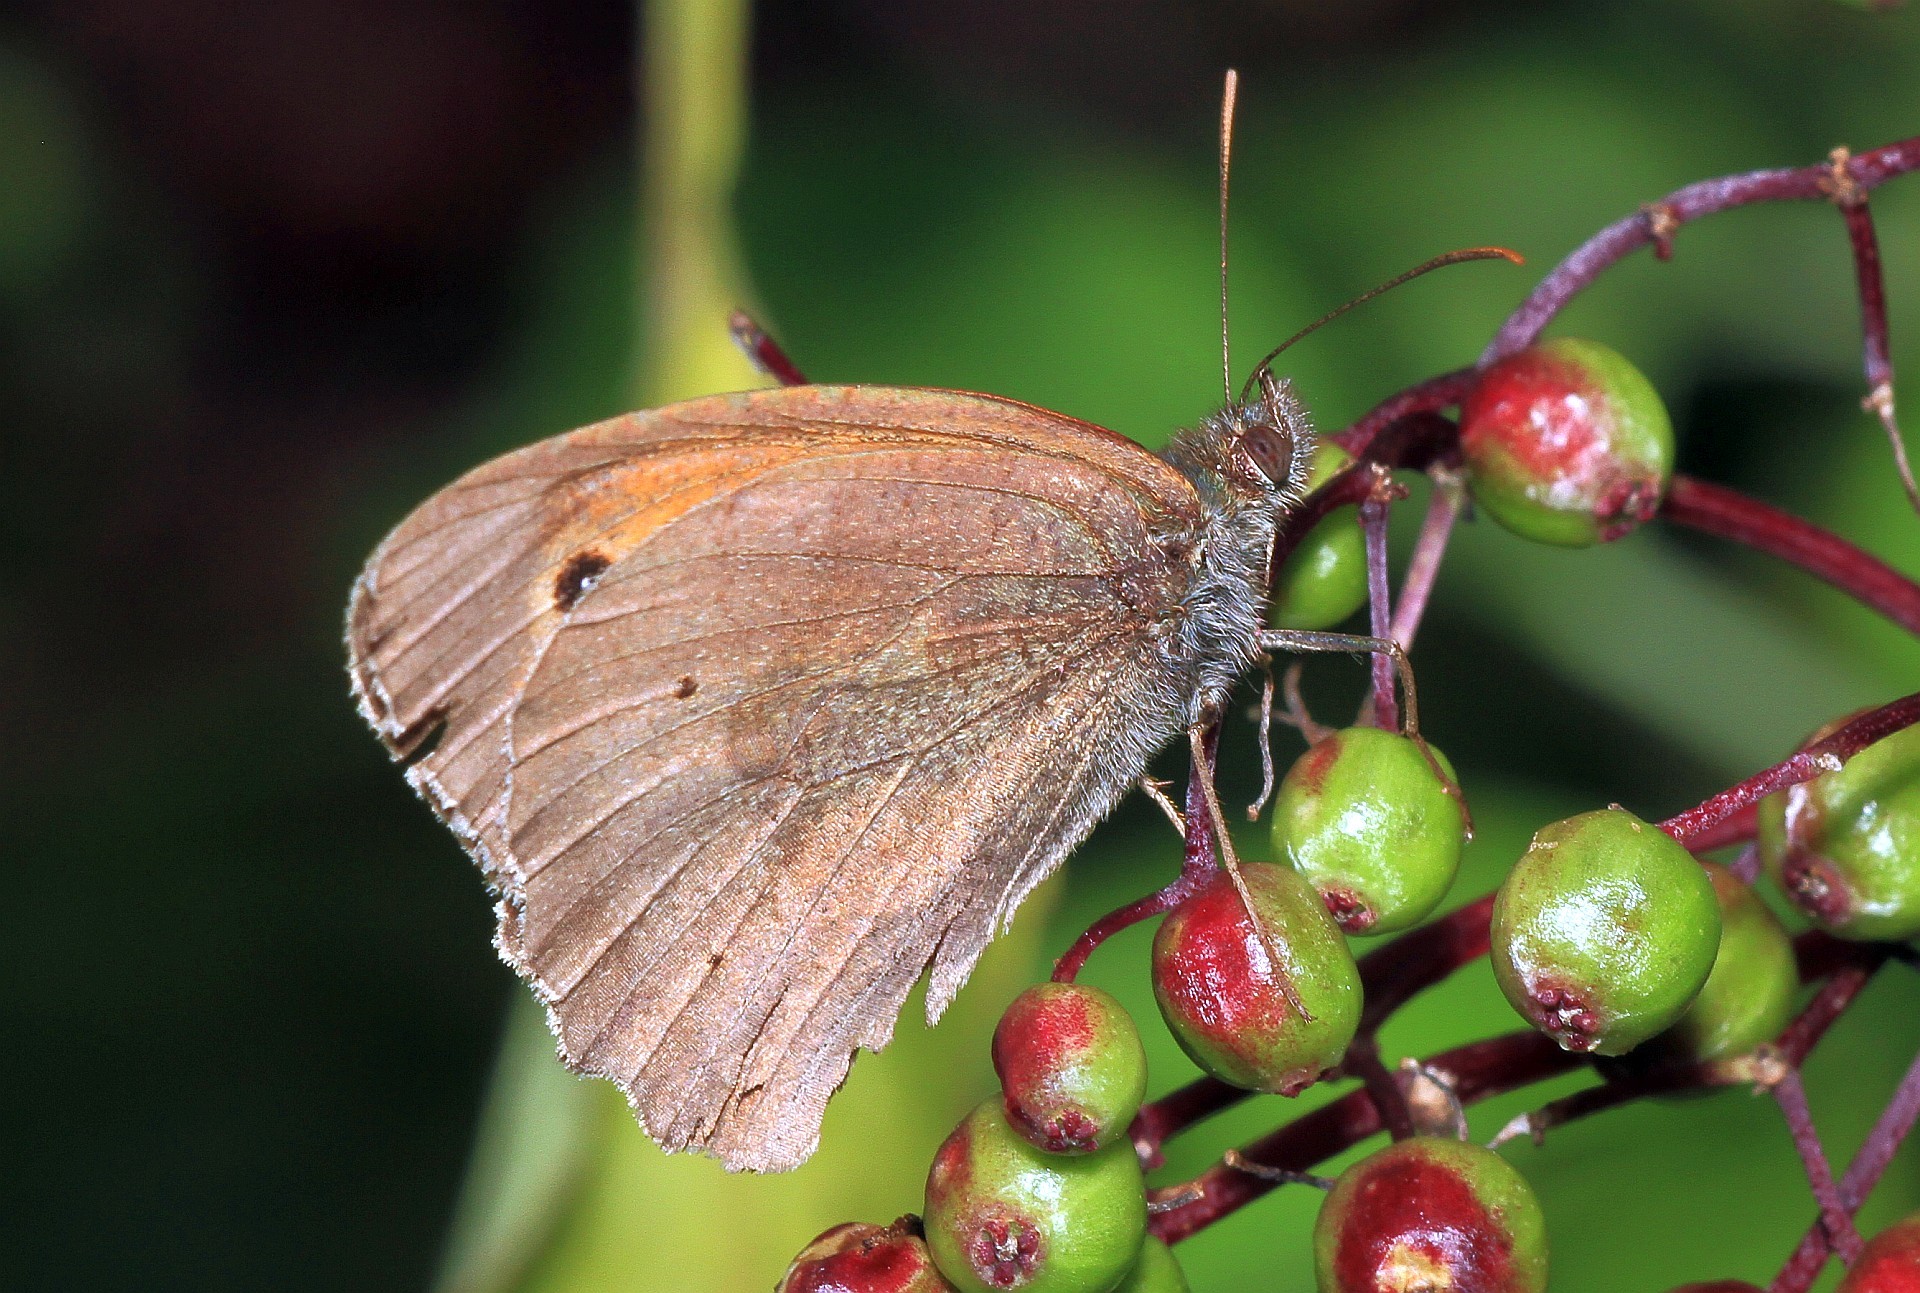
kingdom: Animalia
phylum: Arthropoda
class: Insecta
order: Lepidoptera
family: Nymphalidae
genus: Maniola
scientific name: Maniola jurtina
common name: Meadow brown
